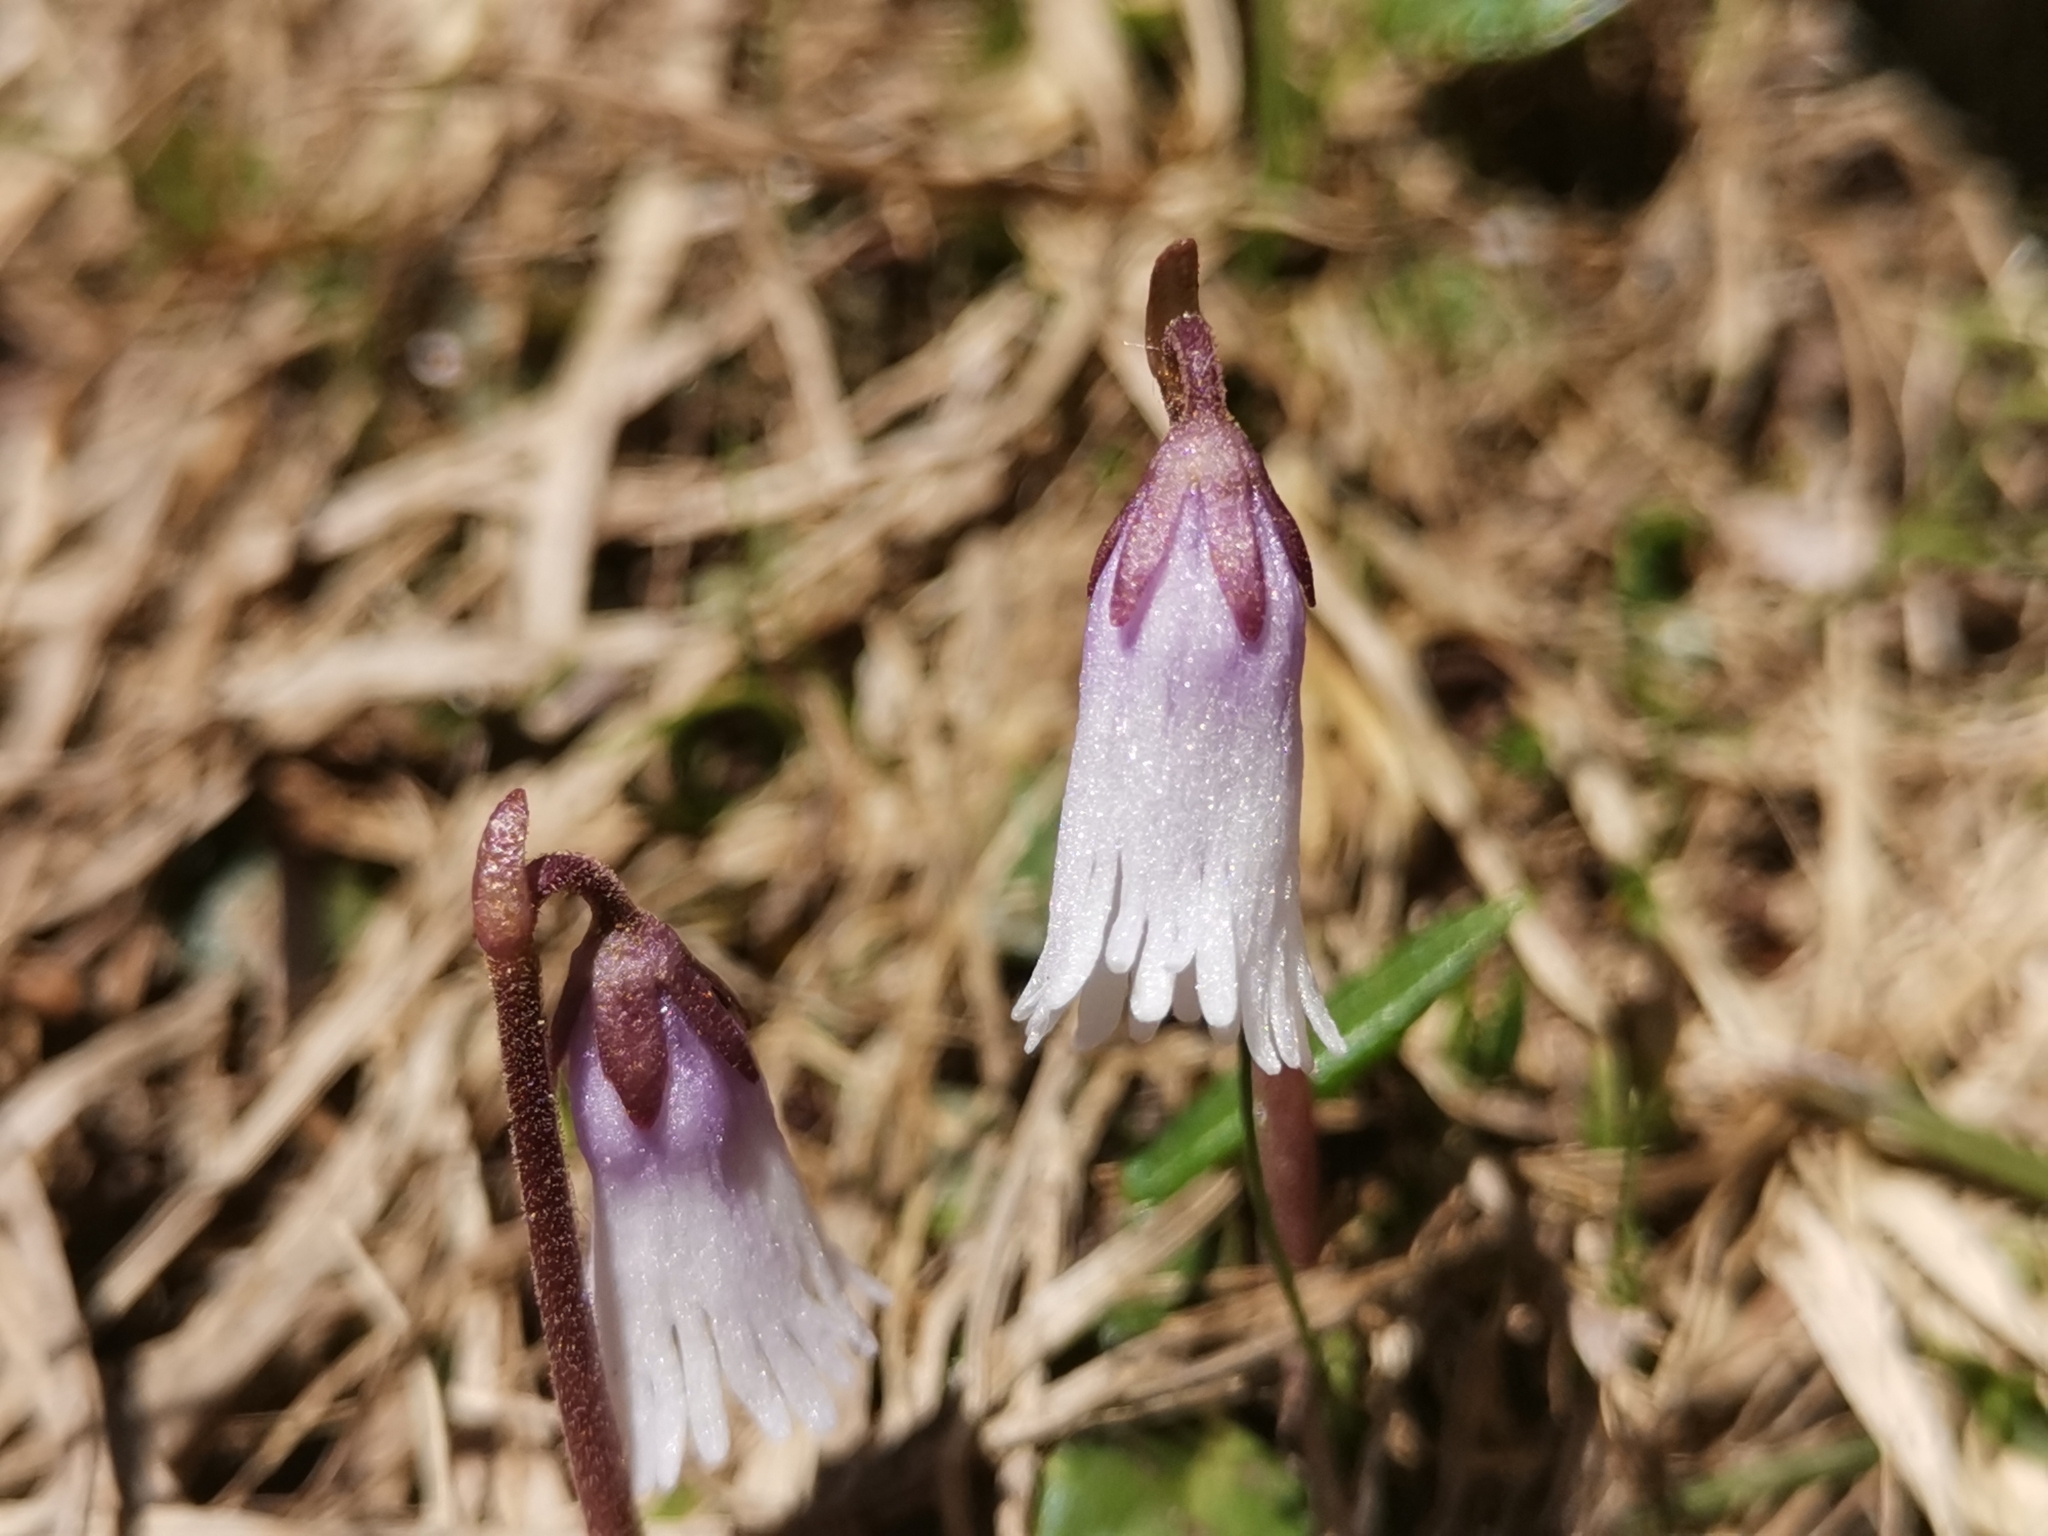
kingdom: Plantae
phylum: Tracheophyta
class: Magnoliopsida
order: Ericales
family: Primulaceae
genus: Soldanella
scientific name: Soldanella minima
